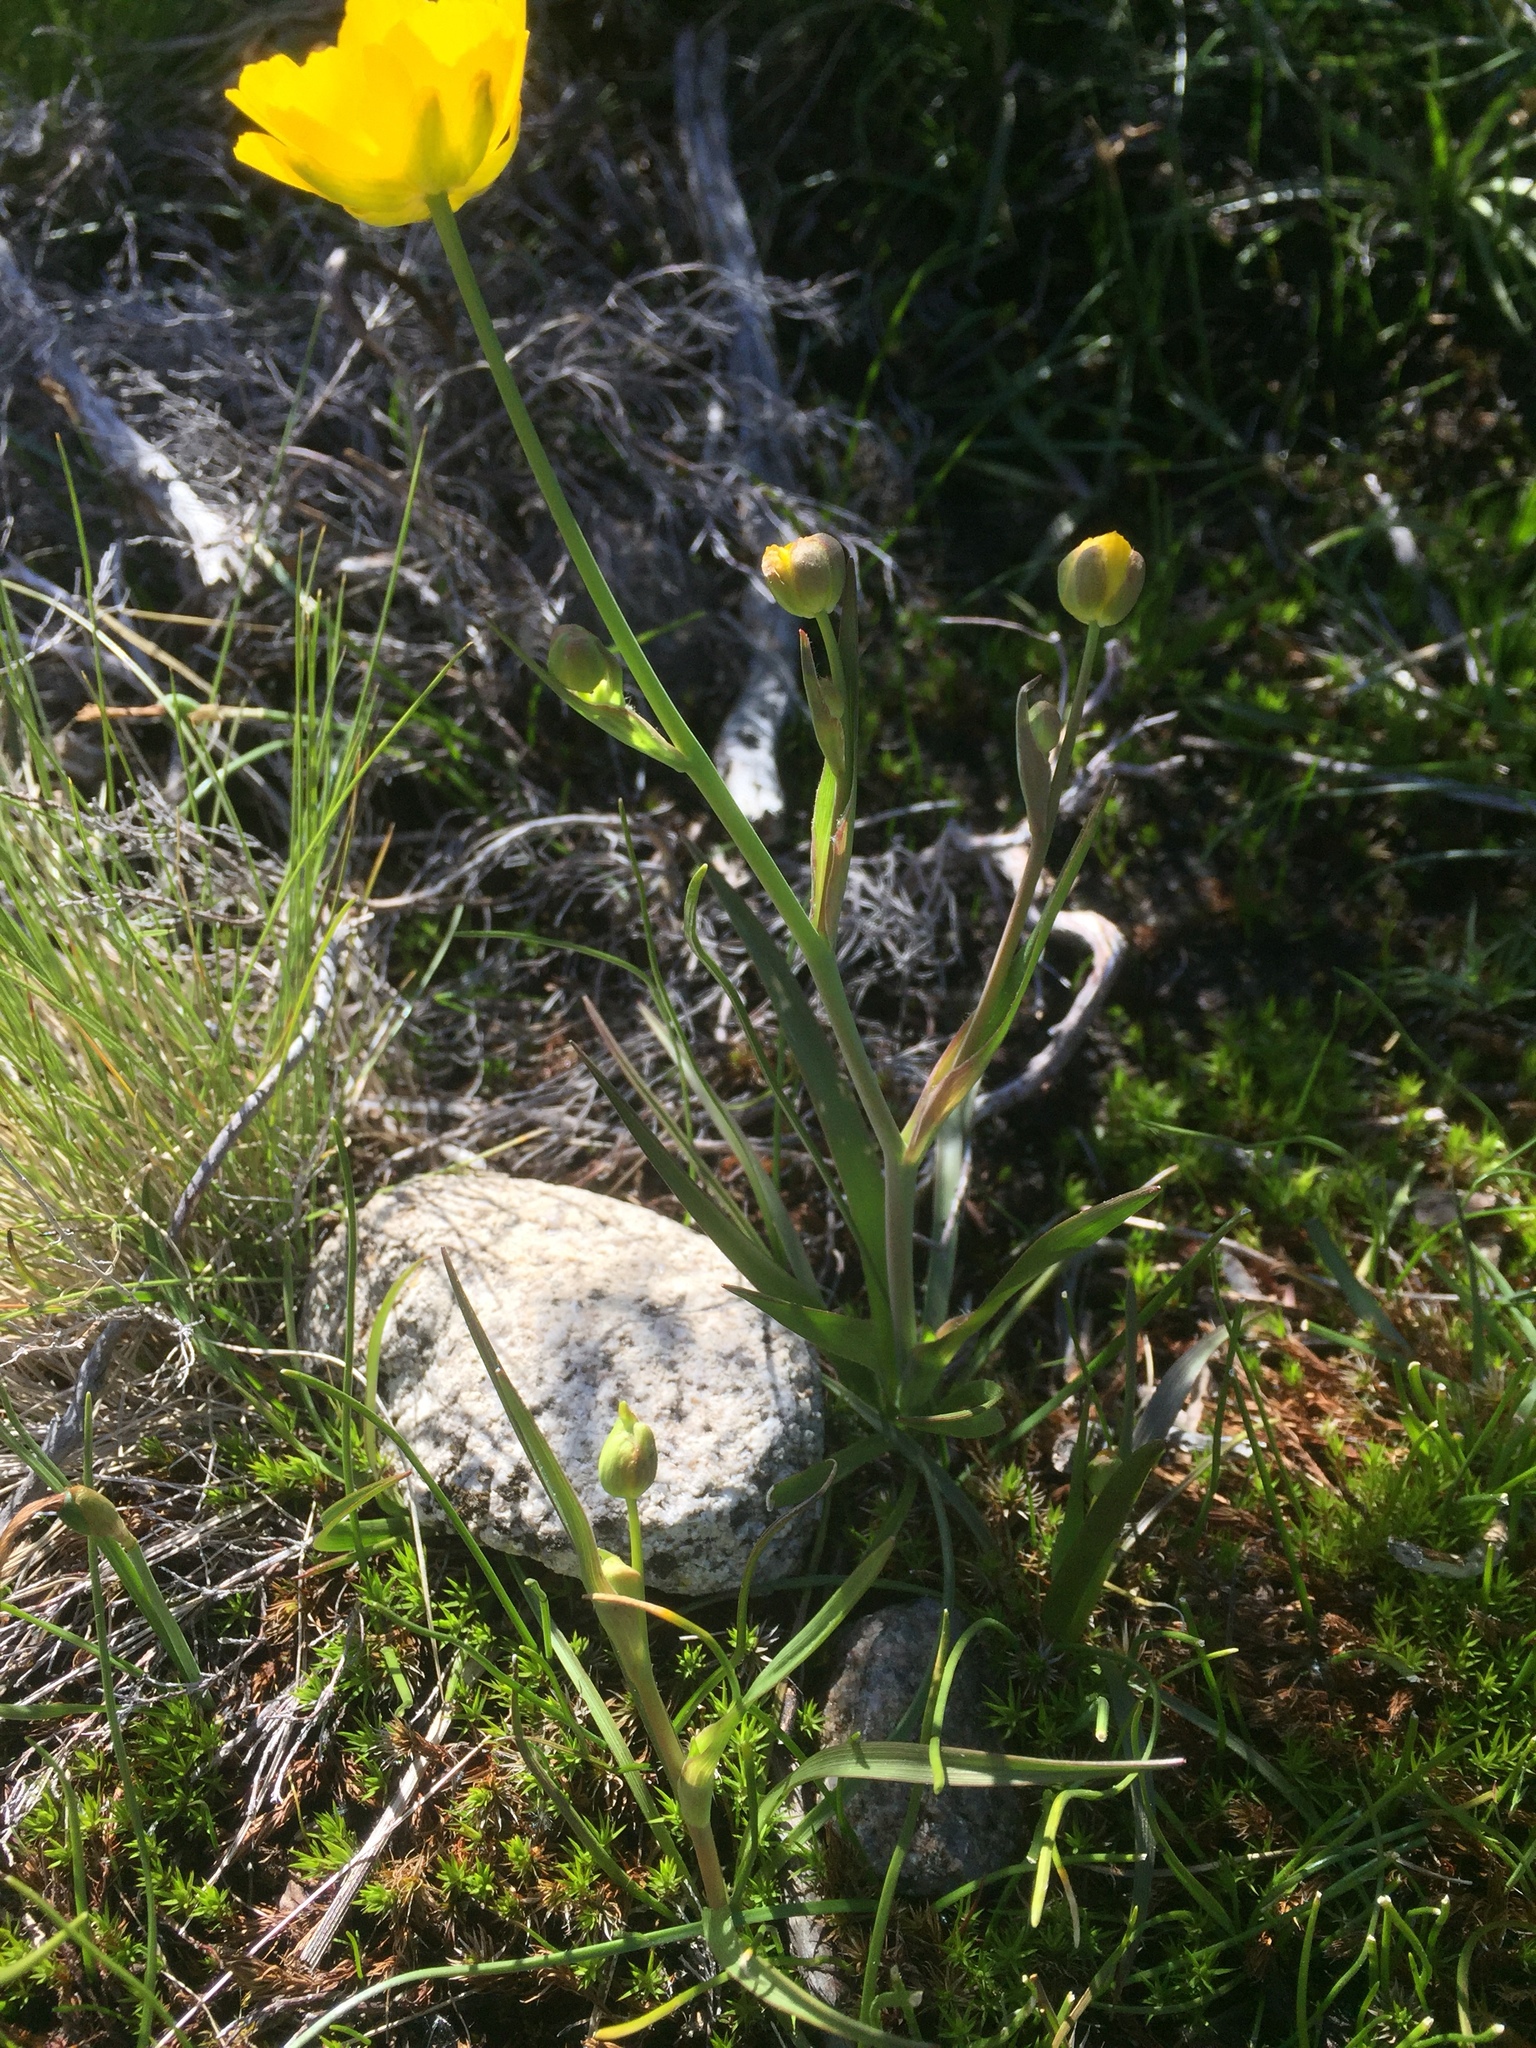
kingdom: Plantae
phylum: Tracheophyta
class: Magnoliopsida
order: Ranunculales
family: Ranunculaceae
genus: Ranunculus
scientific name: Ranunculus abnormis
